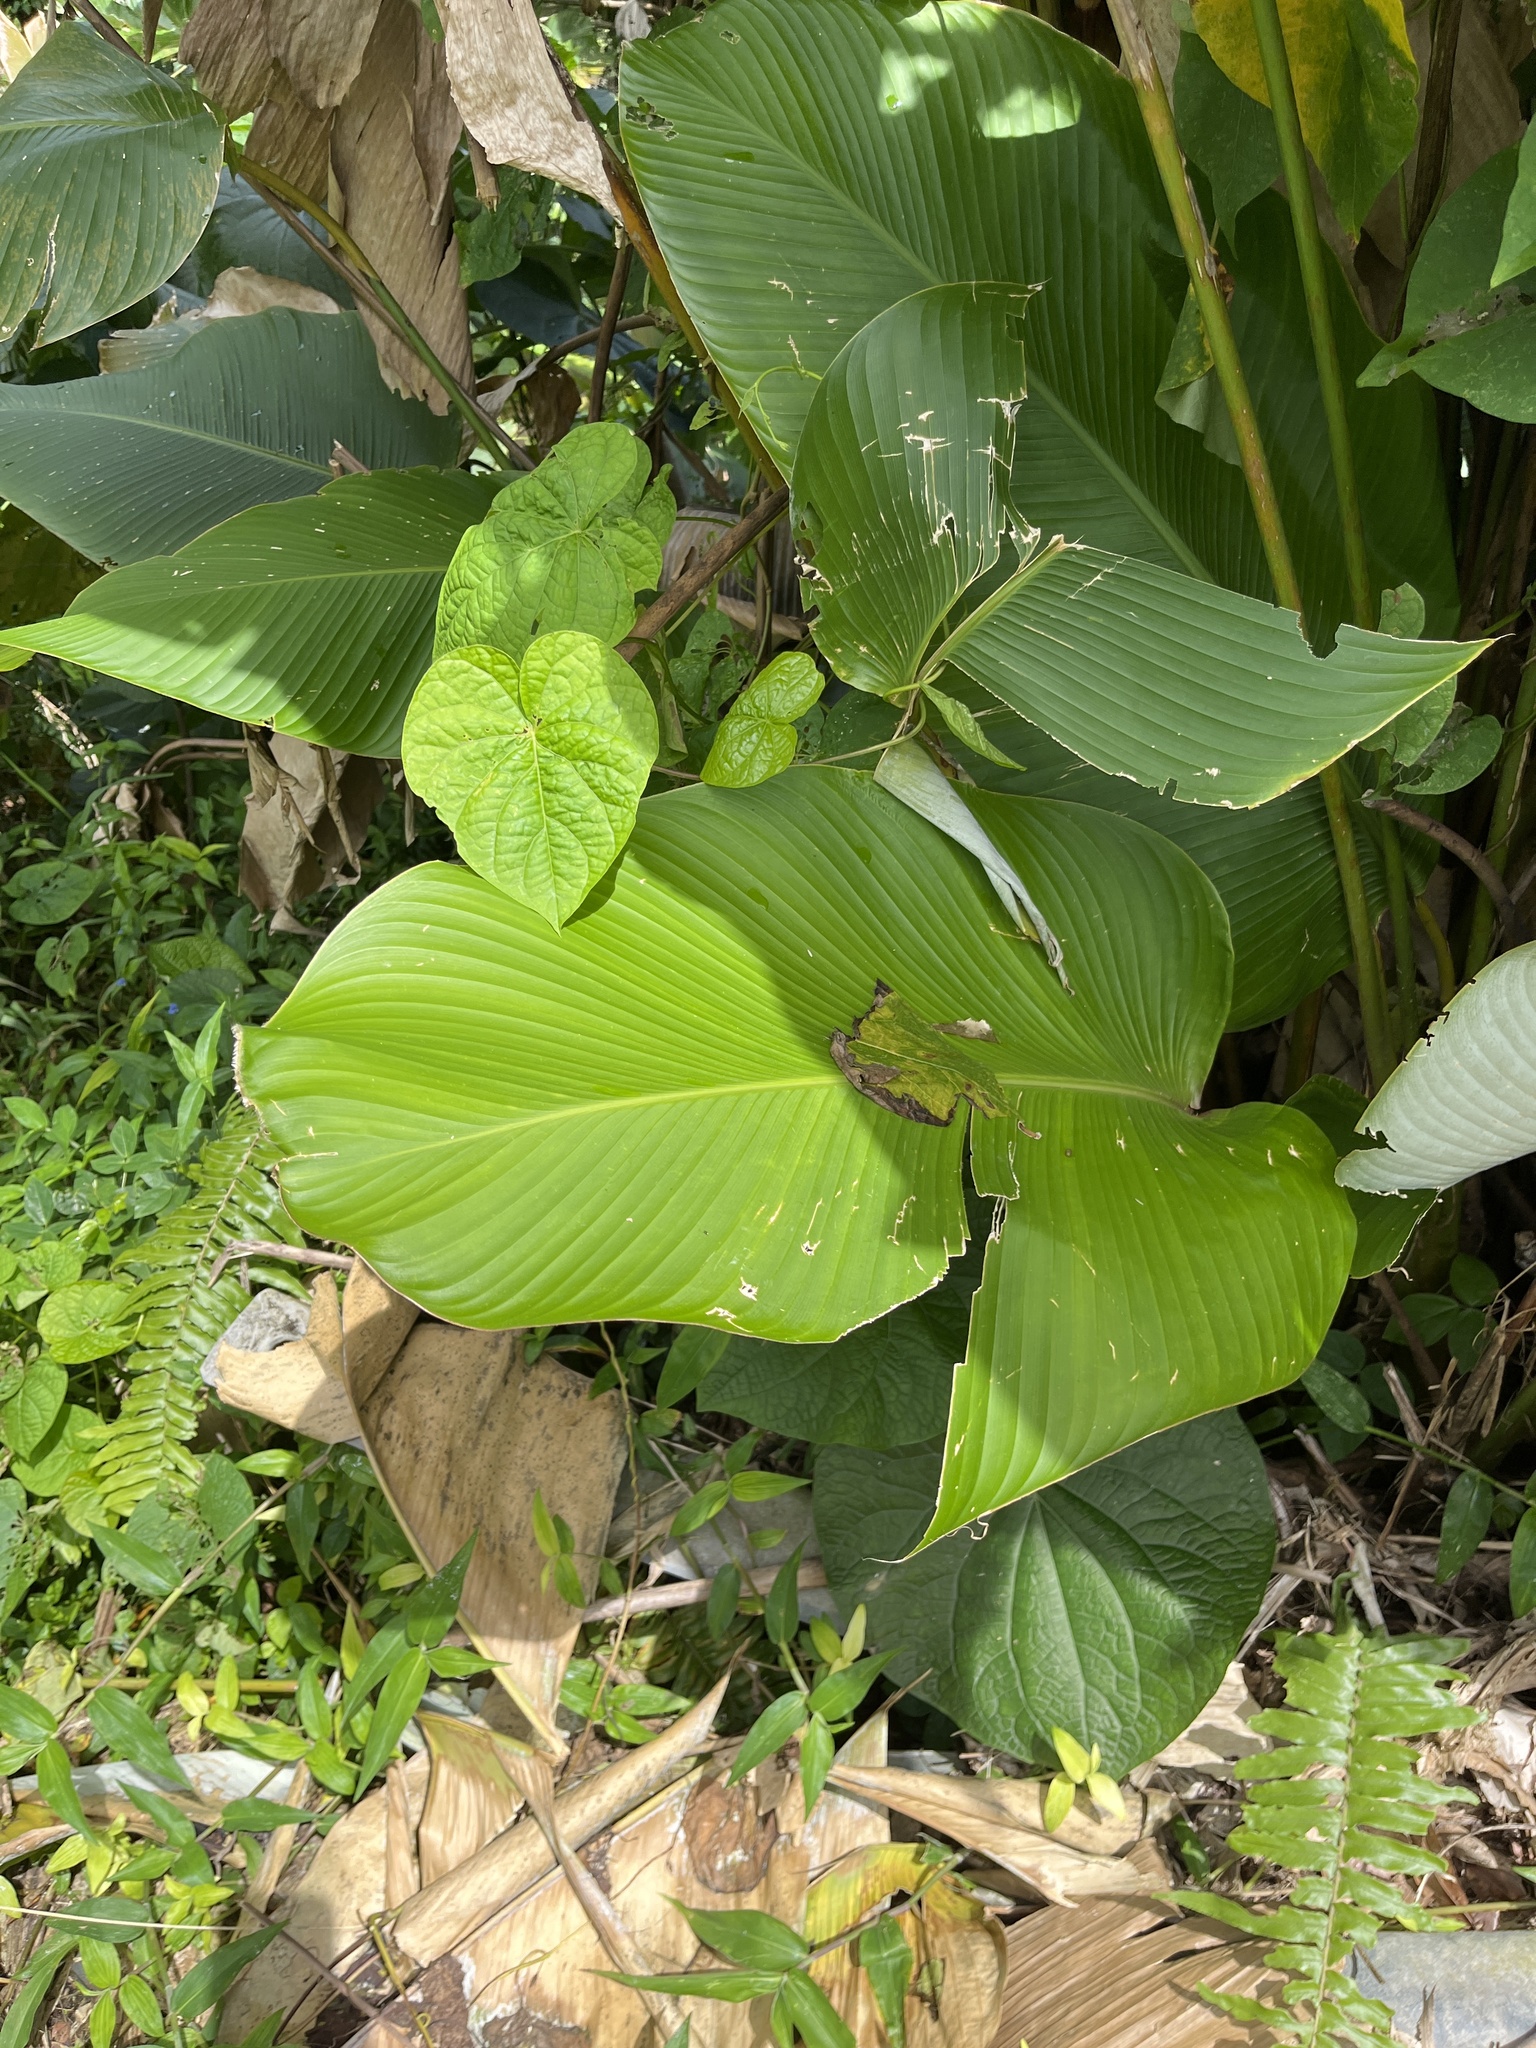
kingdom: Plantae
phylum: Tracheophyta
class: Liliopsida
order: Zingiberales
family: Marantaceae
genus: Calathea
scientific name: Calathea lutea
